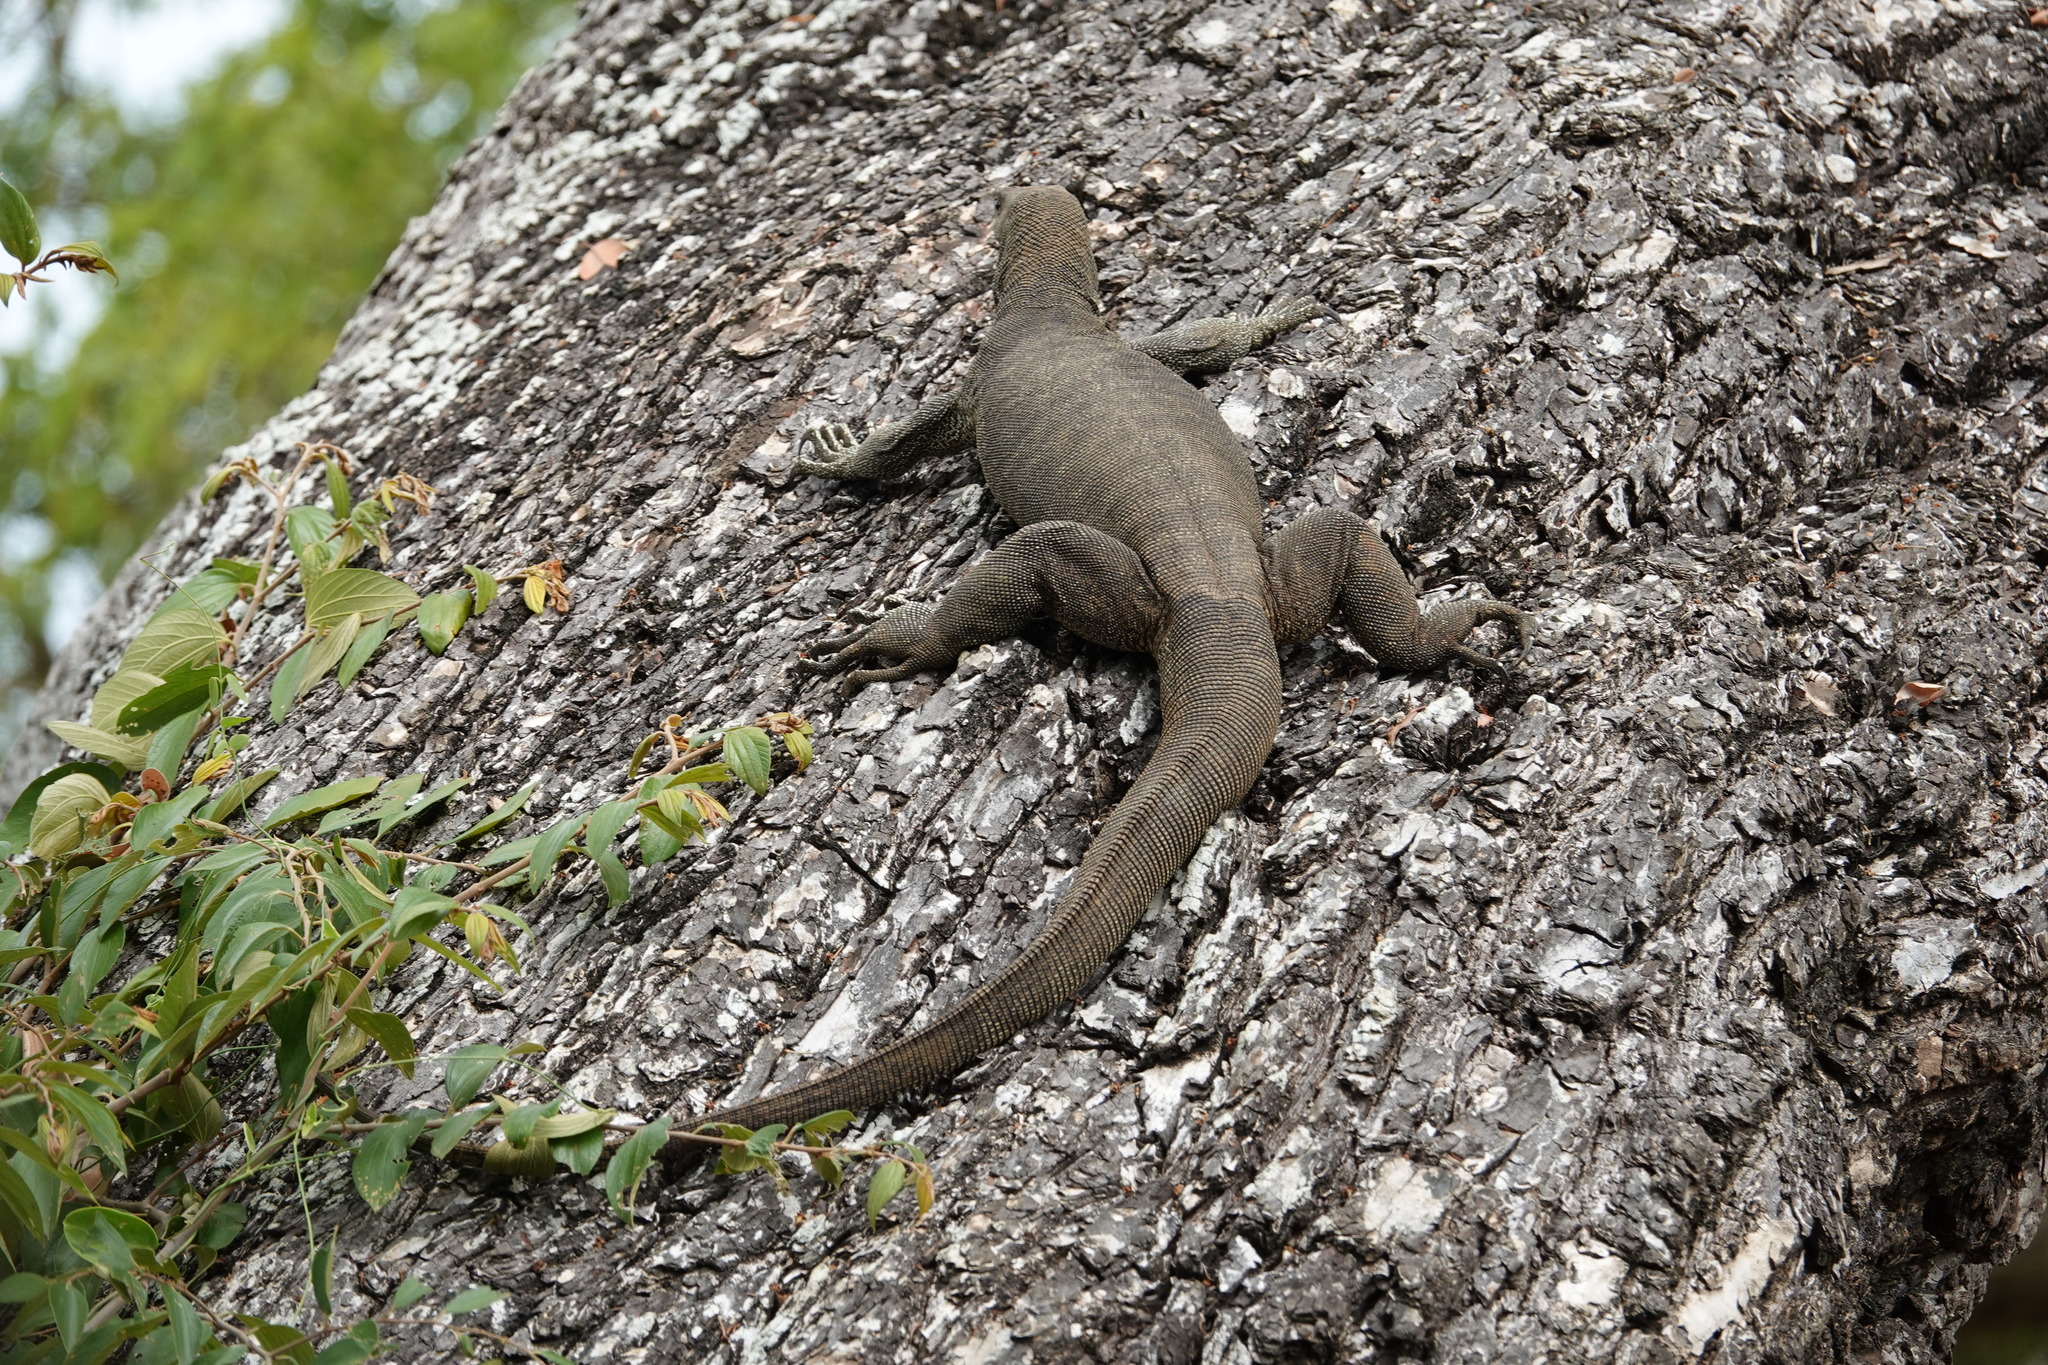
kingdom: Animalia
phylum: Chordata
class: Squamata
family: Varanidae
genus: Varanus
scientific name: Varanus bengalensis
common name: Bengal monitor
